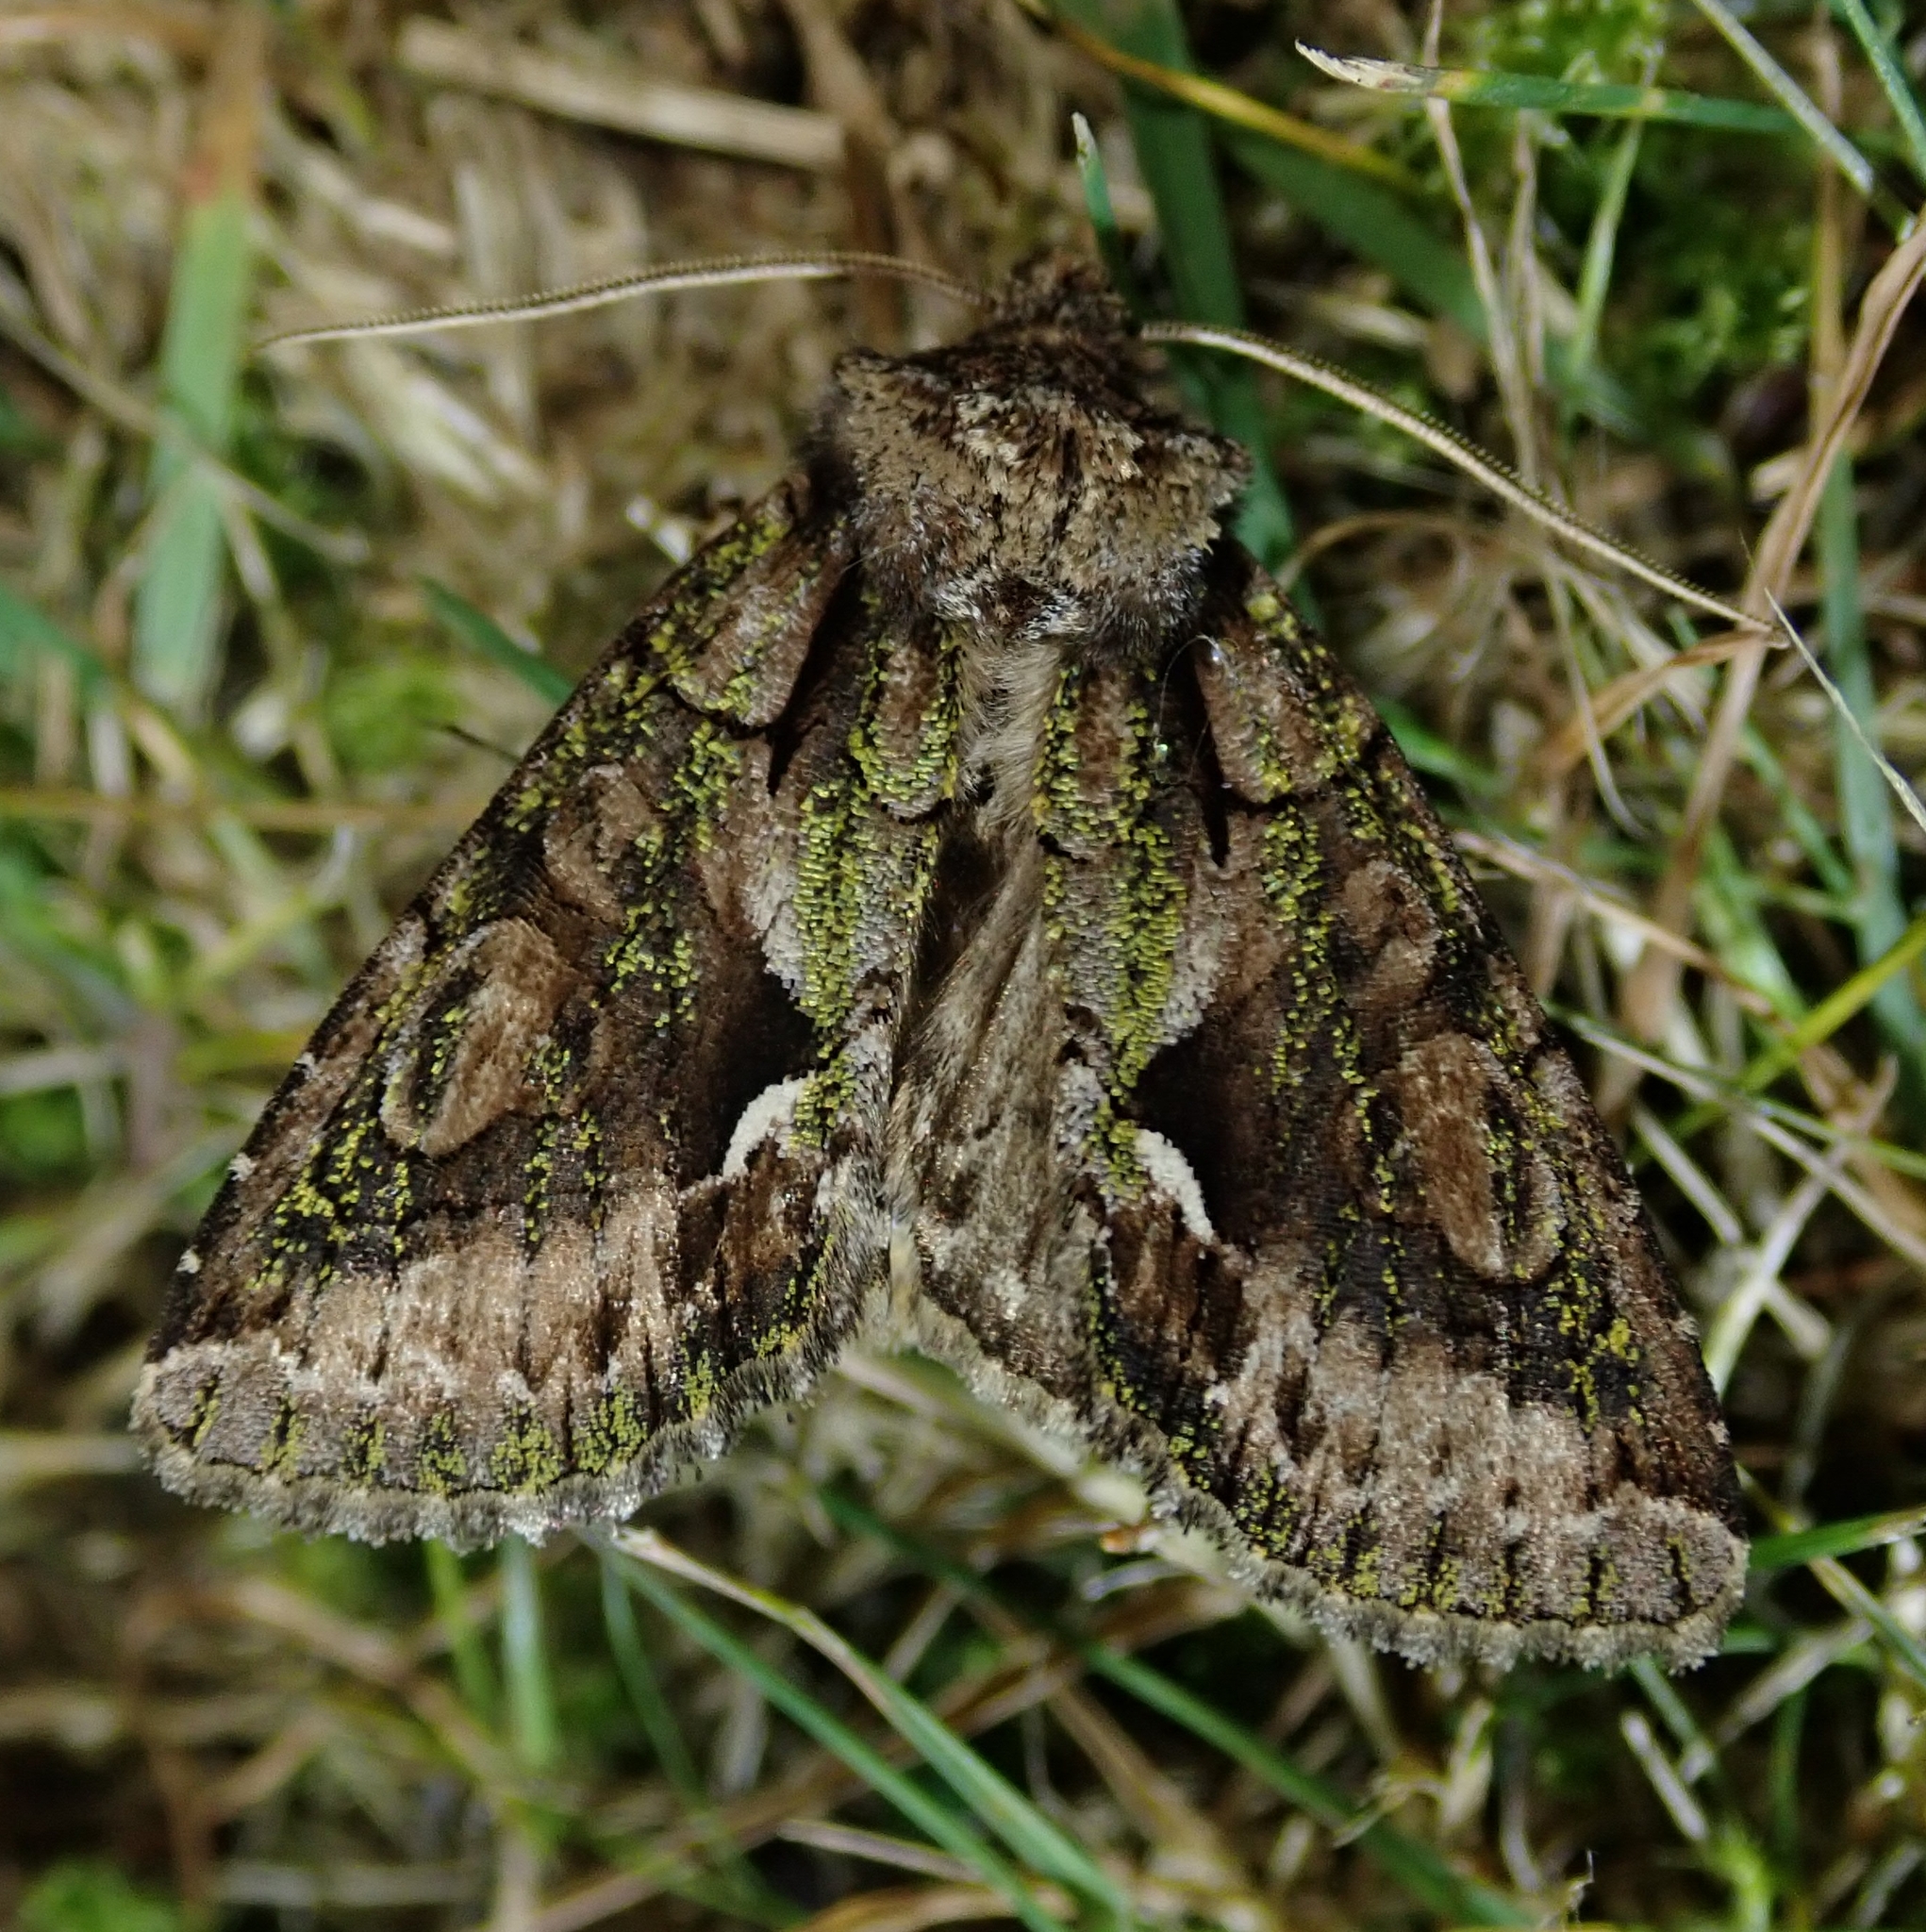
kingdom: Animalia
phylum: Arthropoda
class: Insecta
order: Lepidoptera
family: Noctuidae
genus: Allophyes
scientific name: Allophyes oxyacanthae
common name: Green-brindled crescent
